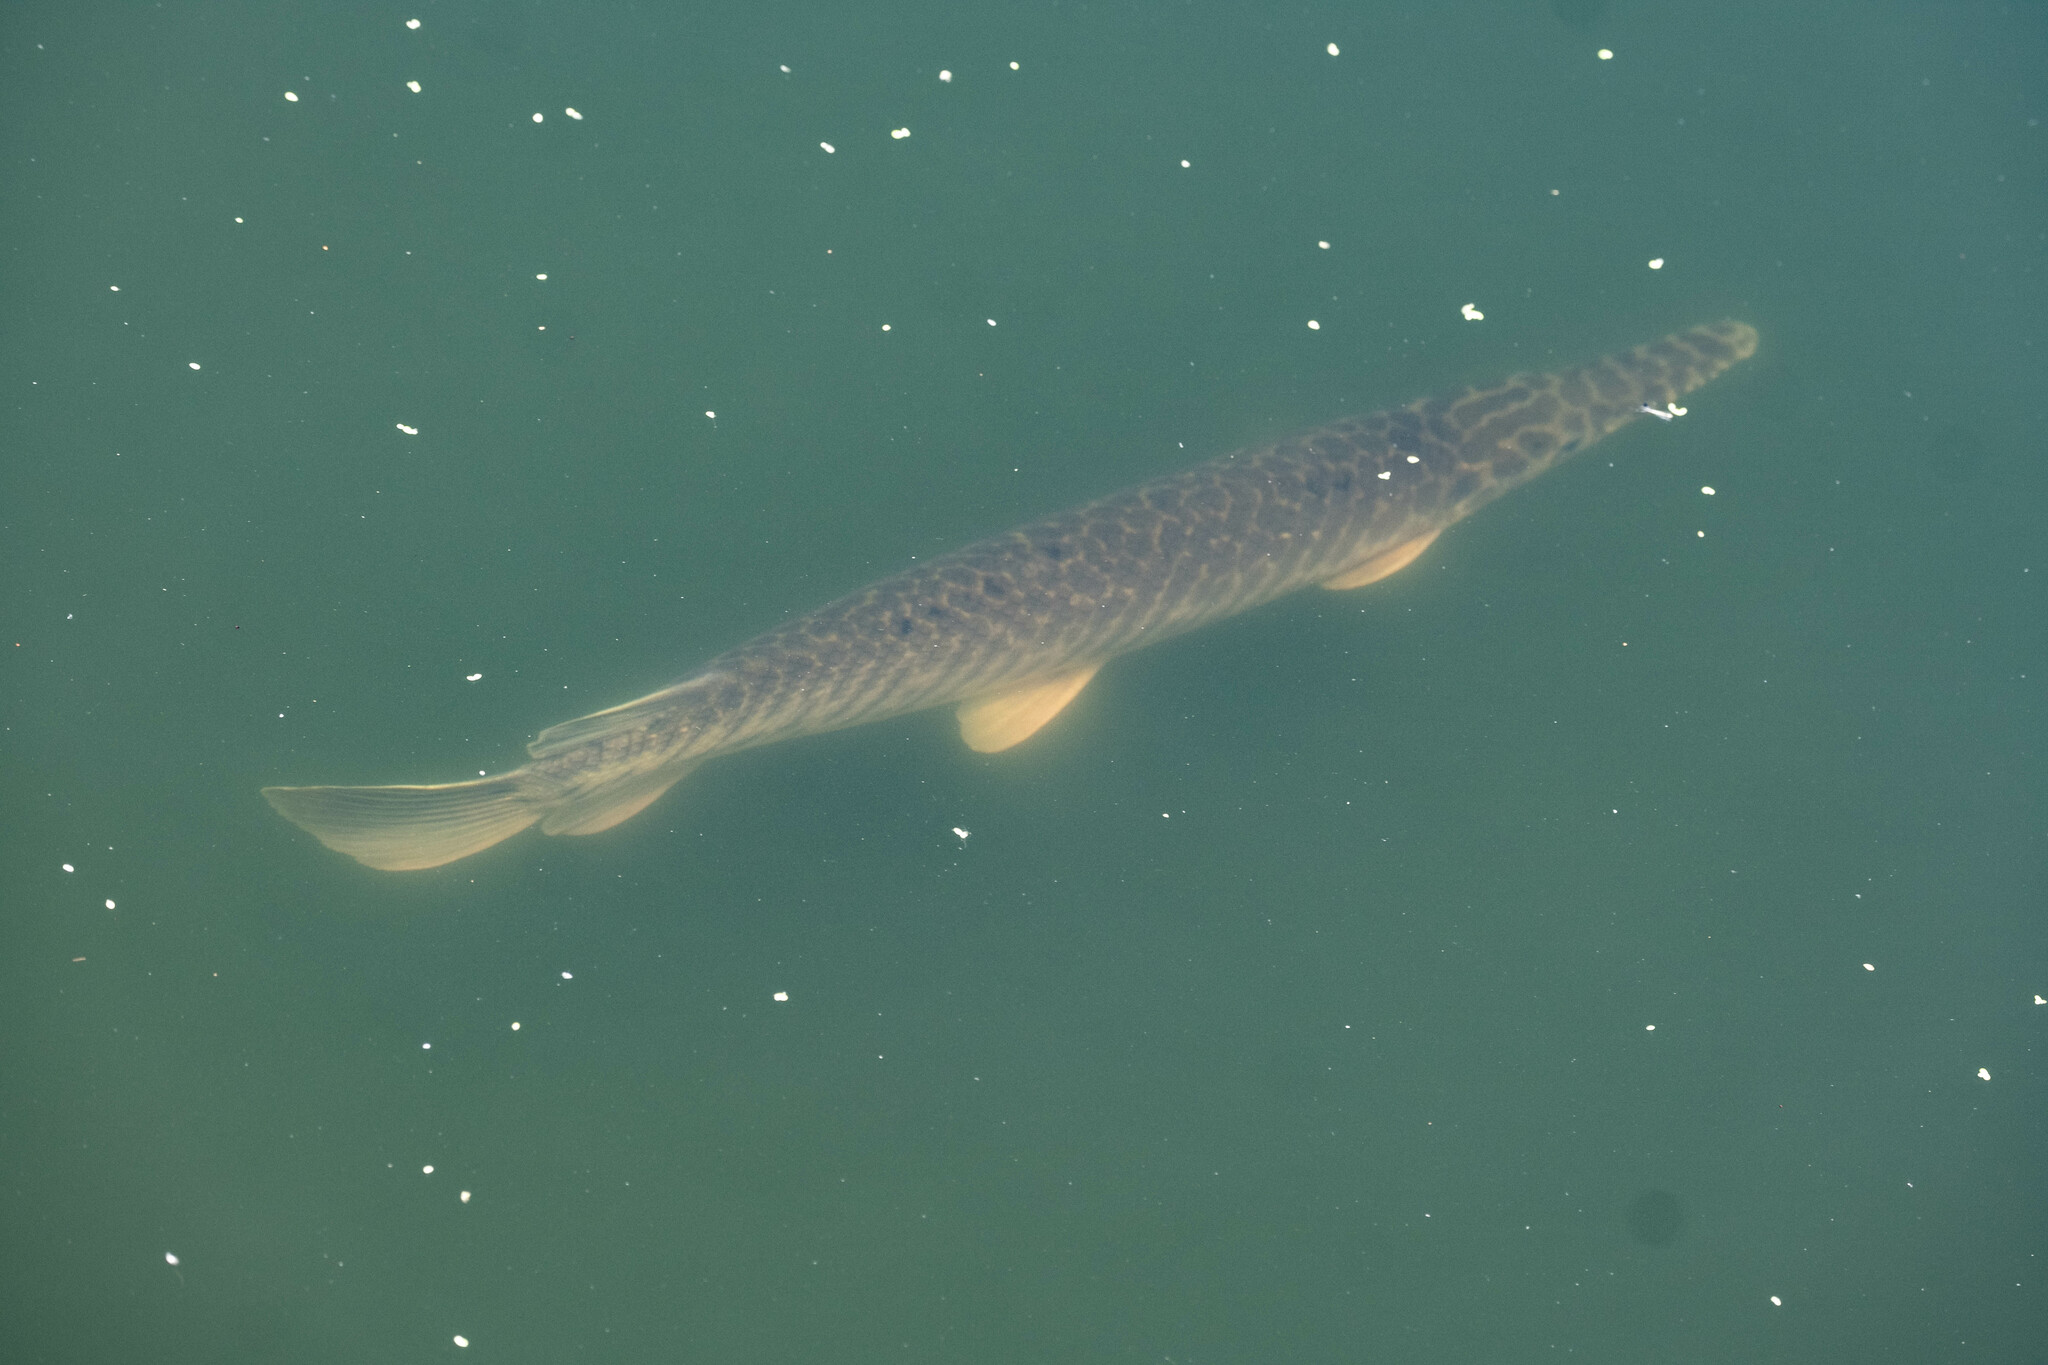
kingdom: Animalia
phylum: Chordata
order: Lepisosteiformes
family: Lepisosteidae
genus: Lepisosteus
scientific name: Lepisosteus platyrhincus
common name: Florida gar
